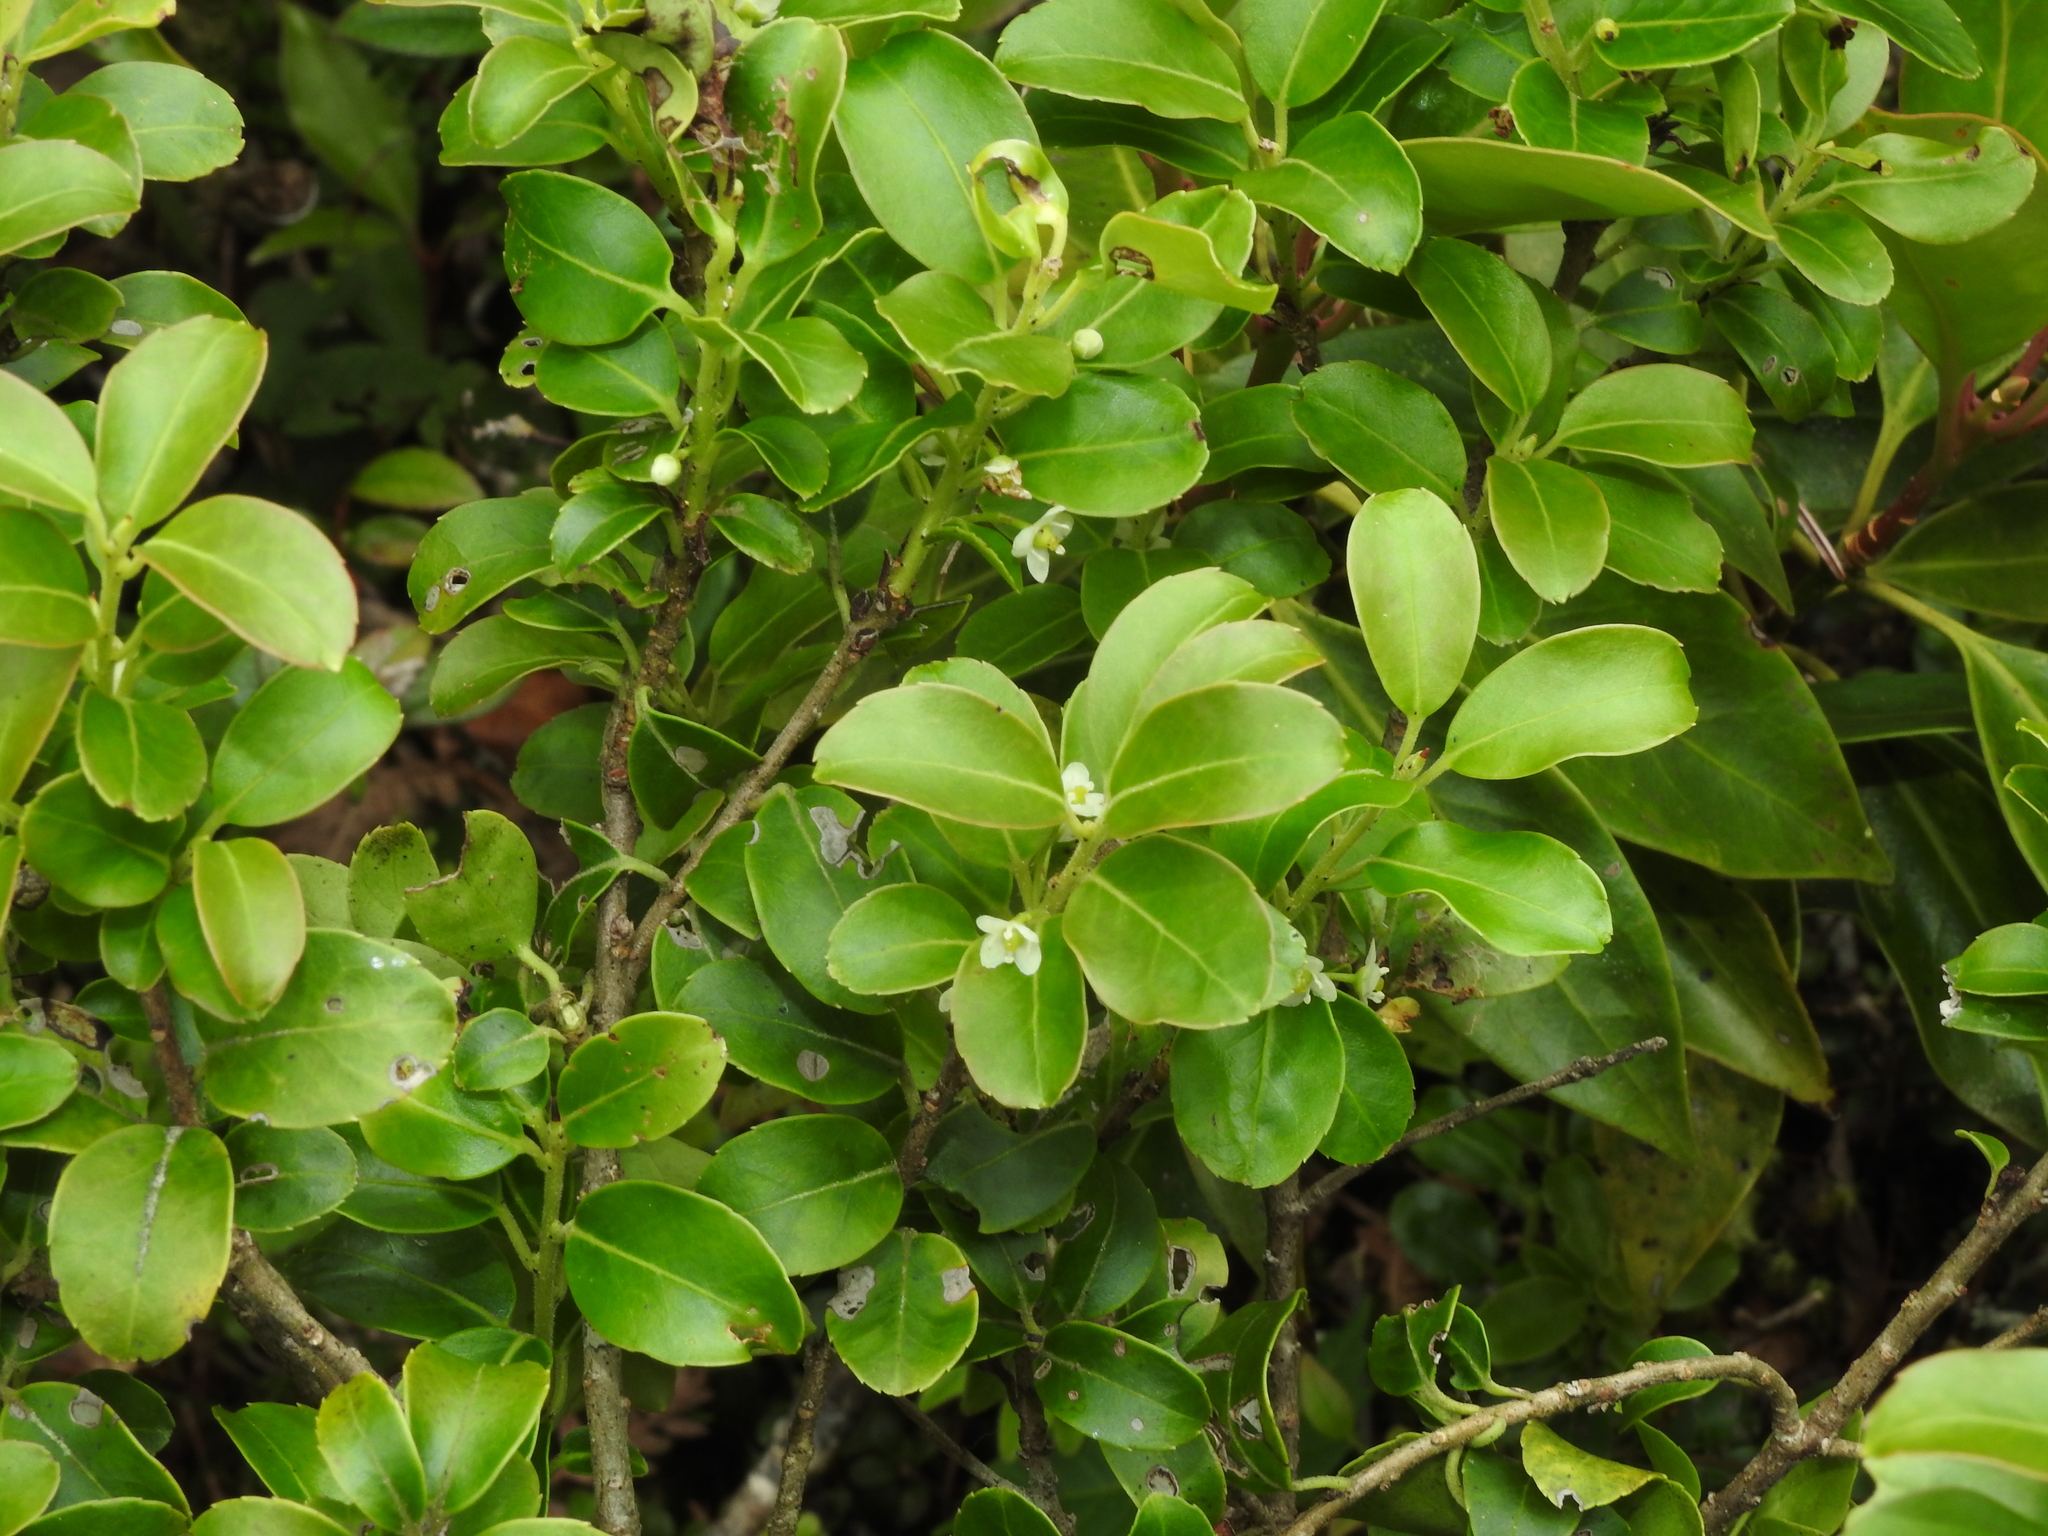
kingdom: Plantae
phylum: Tracheophyta
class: Magnoliopsida
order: Aquifoliales
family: Aquifoliaceae
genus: Ilex
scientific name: Ilex sugerokii
